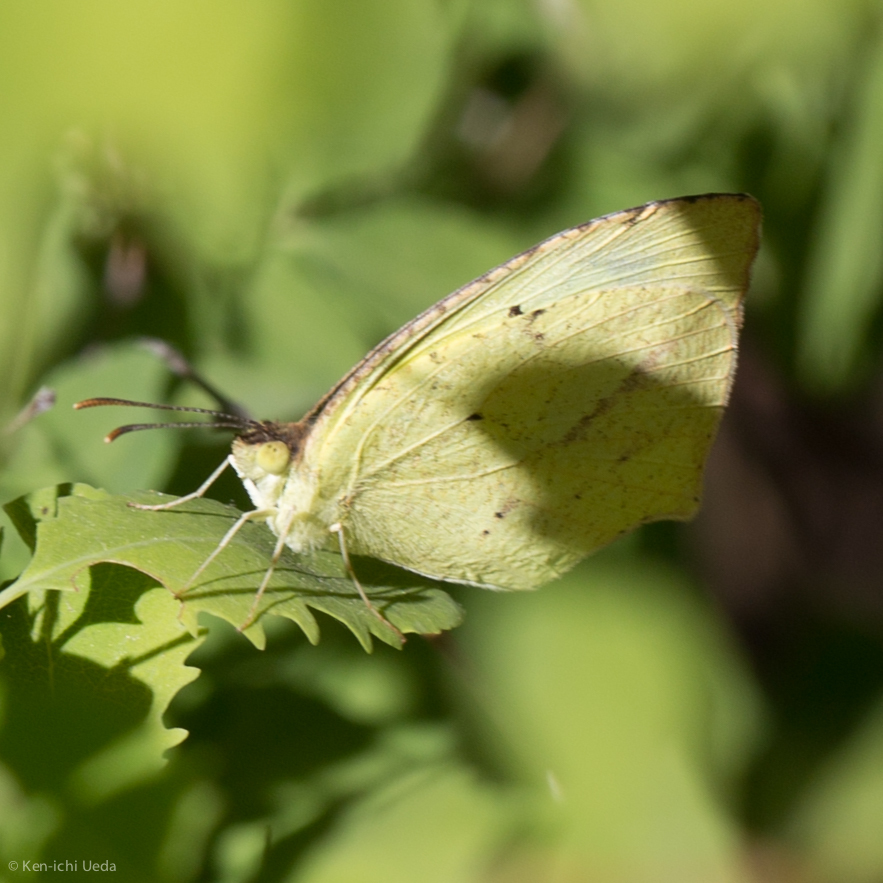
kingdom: Animalia
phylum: Arthropoda
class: Insecta
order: Lepidoptera
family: Pieridae
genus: Abaeis
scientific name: Abaeis mexicana
